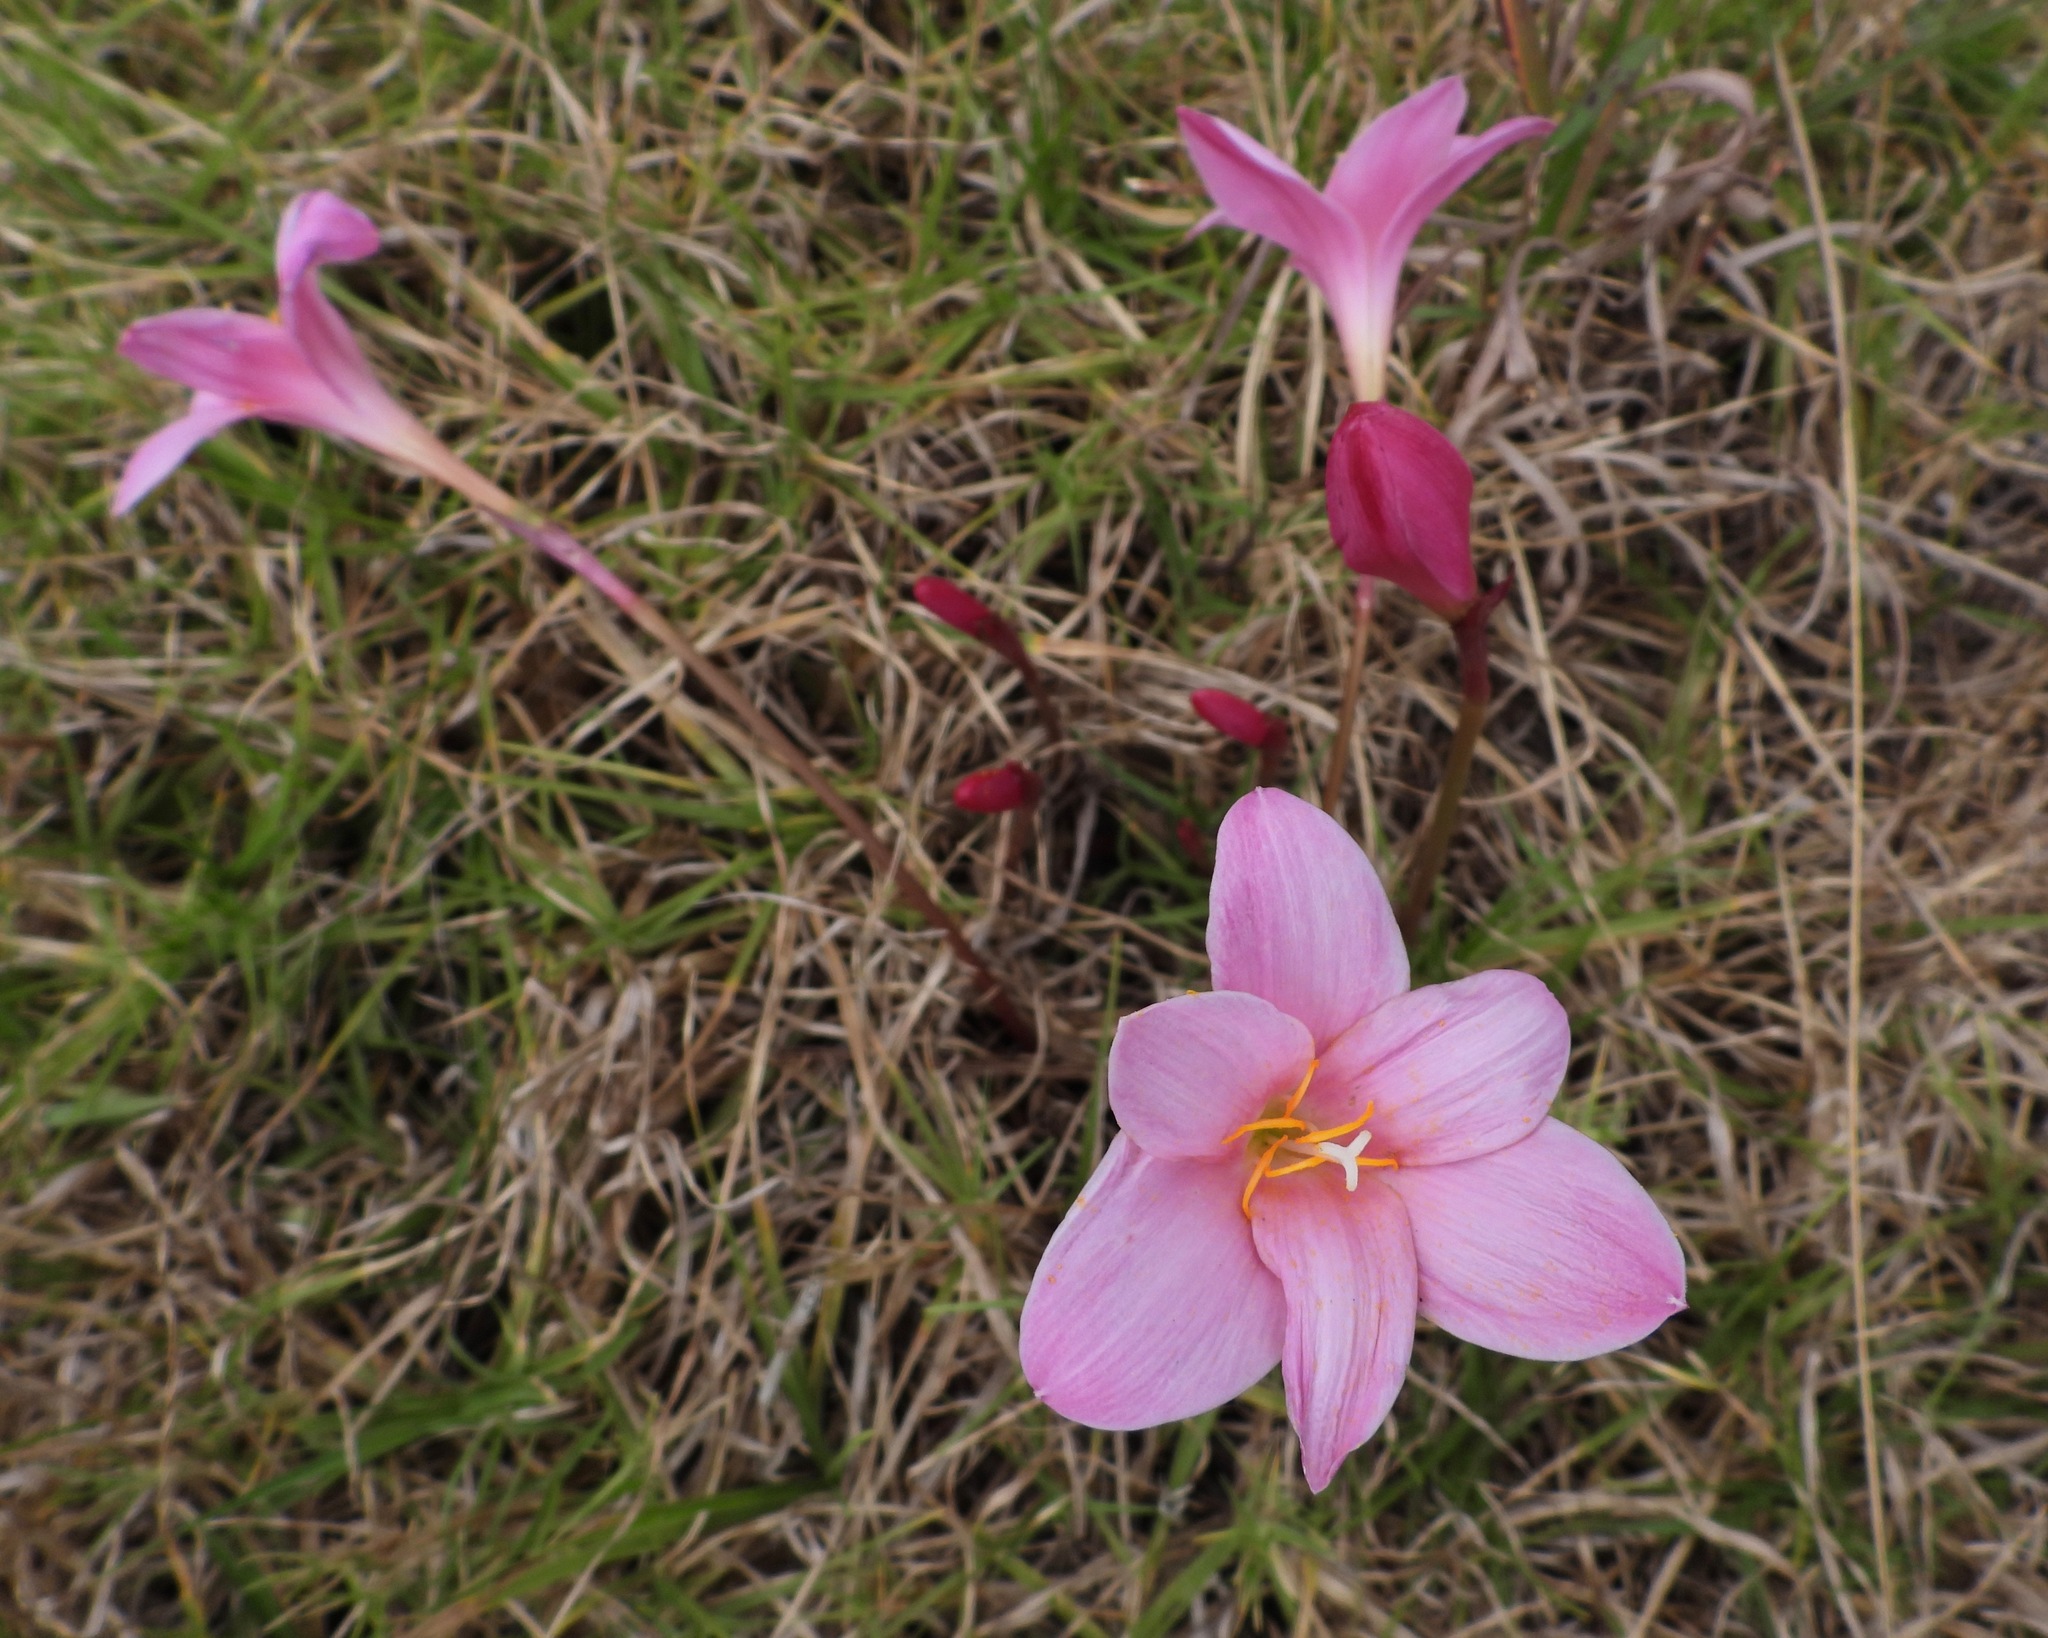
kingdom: Plantae
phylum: Tracheophyta
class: Liliopsida
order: Asparagales
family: Amaryllidaceae
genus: Zephyranthes
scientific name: Zephyranthes carinata
